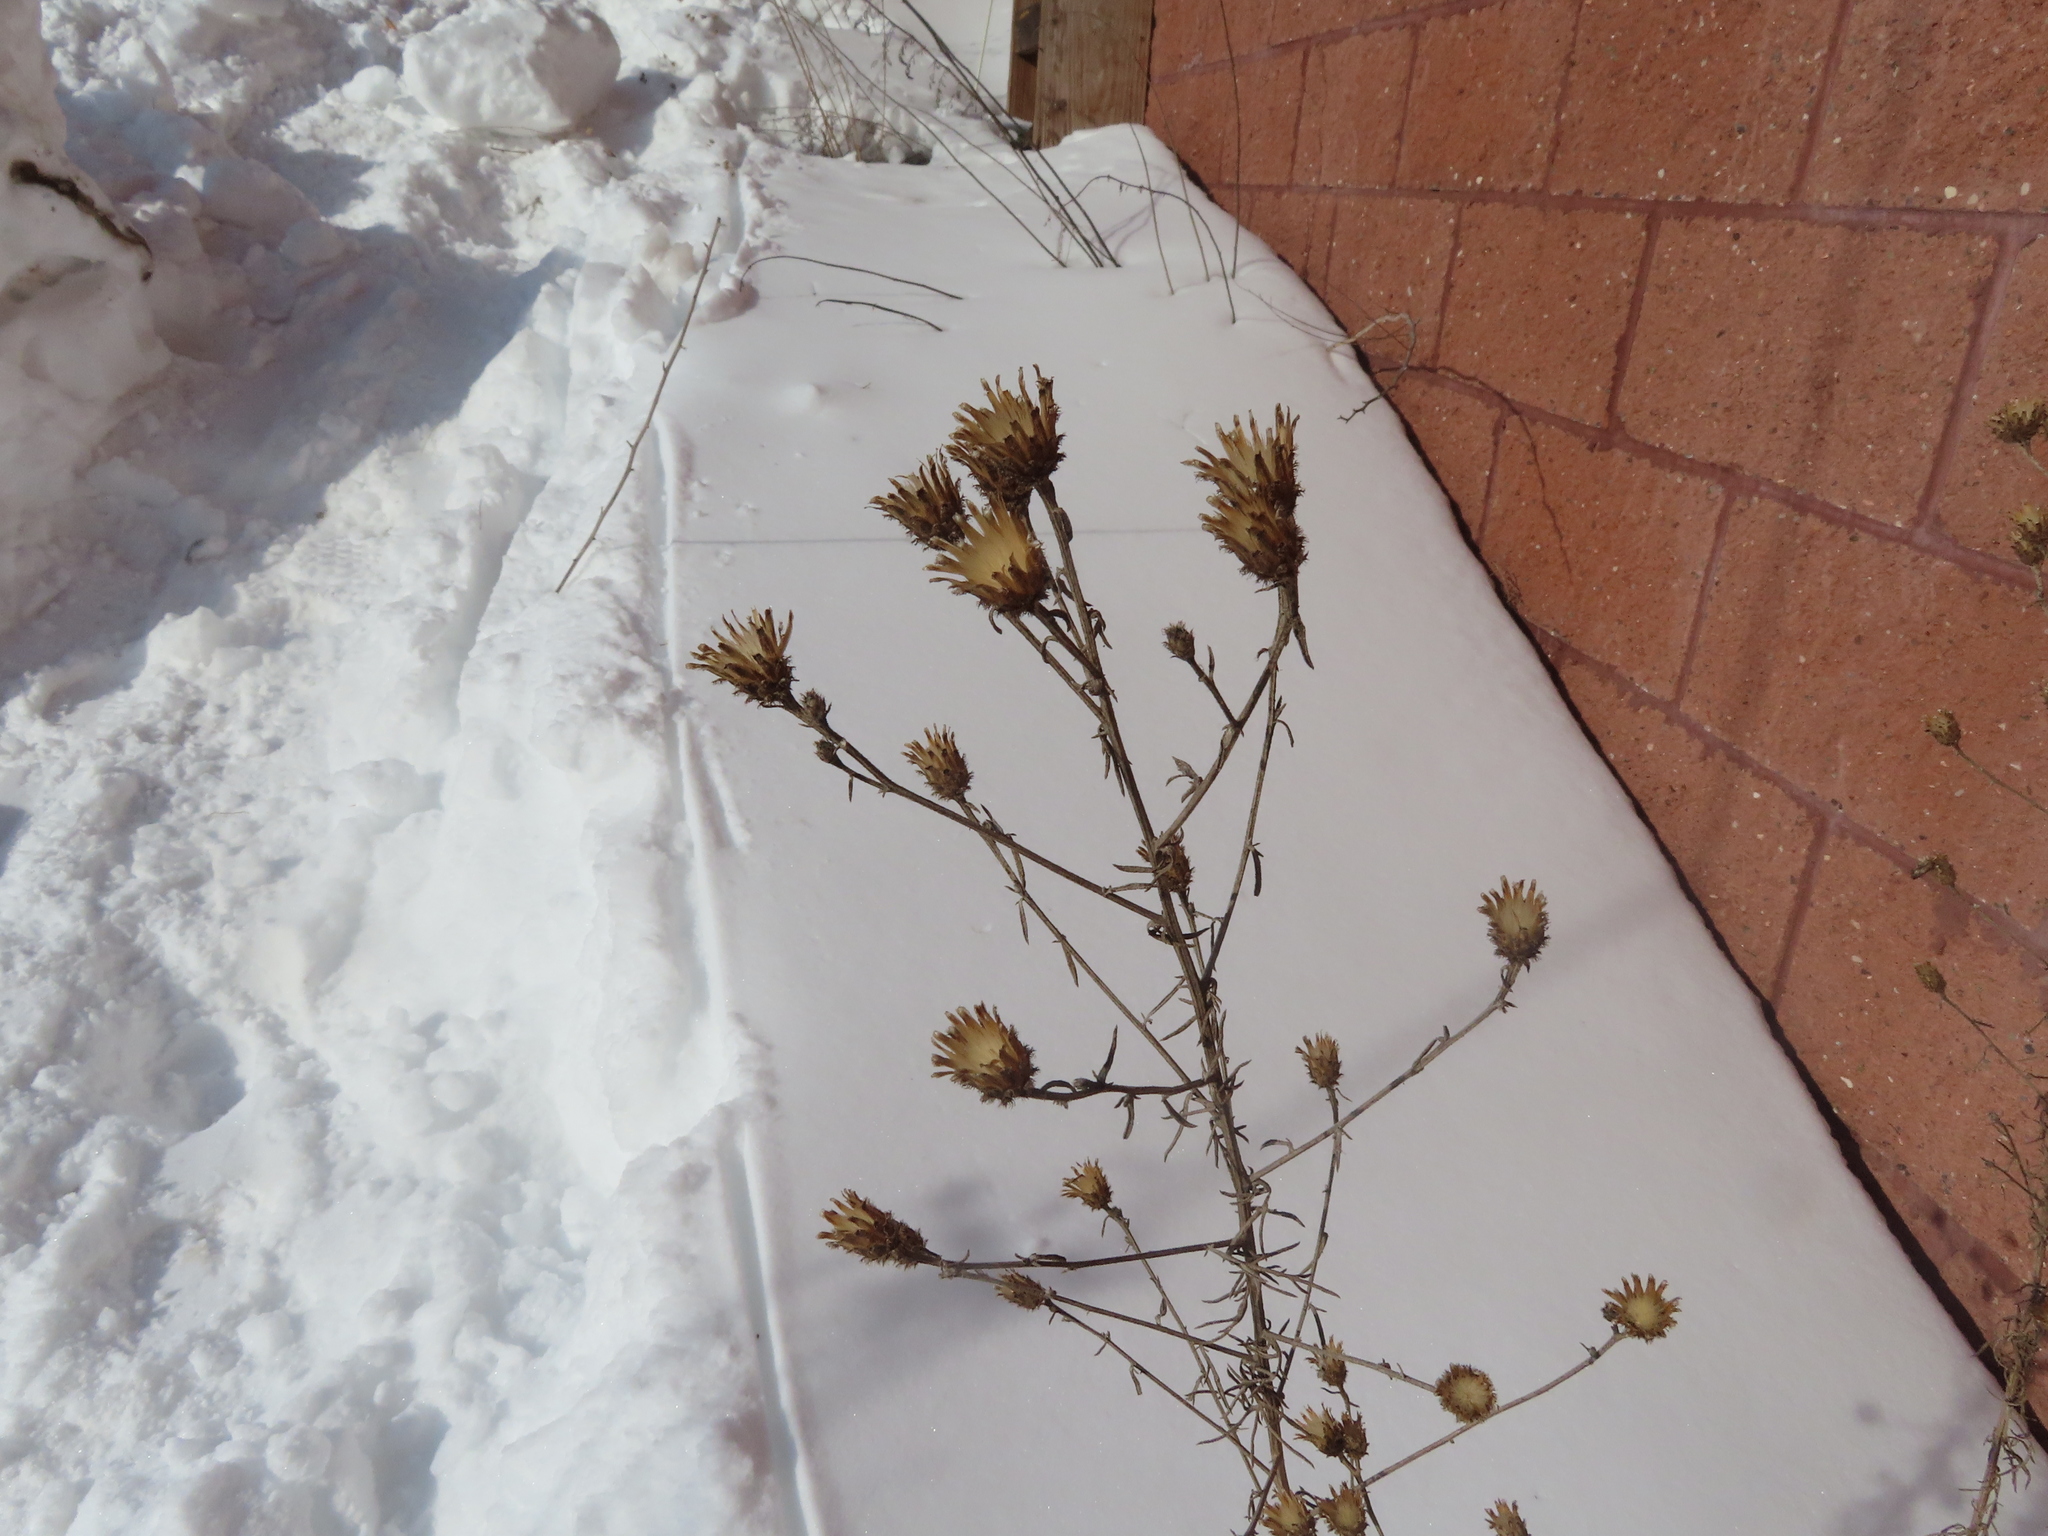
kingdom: Plantae
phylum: Tracheophyta
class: Magnoliopsida
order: Asterales
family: Asteraceae
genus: Centaurea
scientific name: Centaurea stoebe
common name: Spotted knapweed
